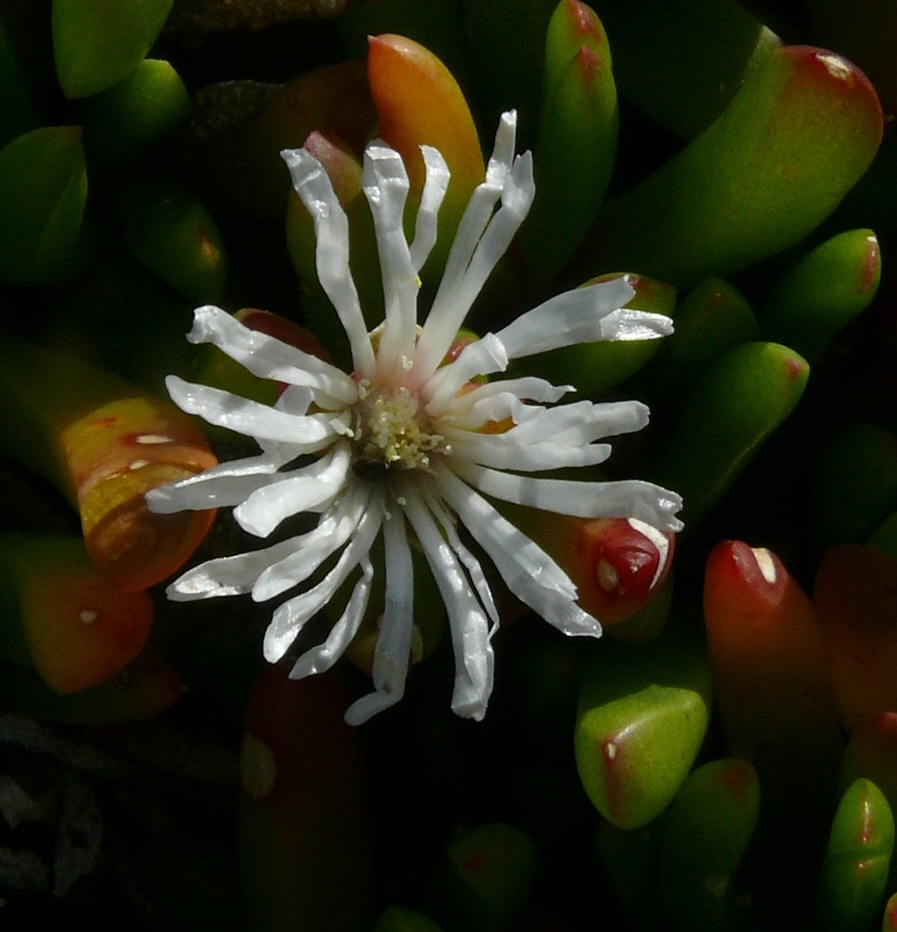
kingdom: Plantae
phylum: Tracheophyta
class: Magnoliopsida
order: Caryophyllales
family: Aizoaceae
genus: Disphyma
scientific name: Disphyma crassifolium
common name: Purple dewplant
